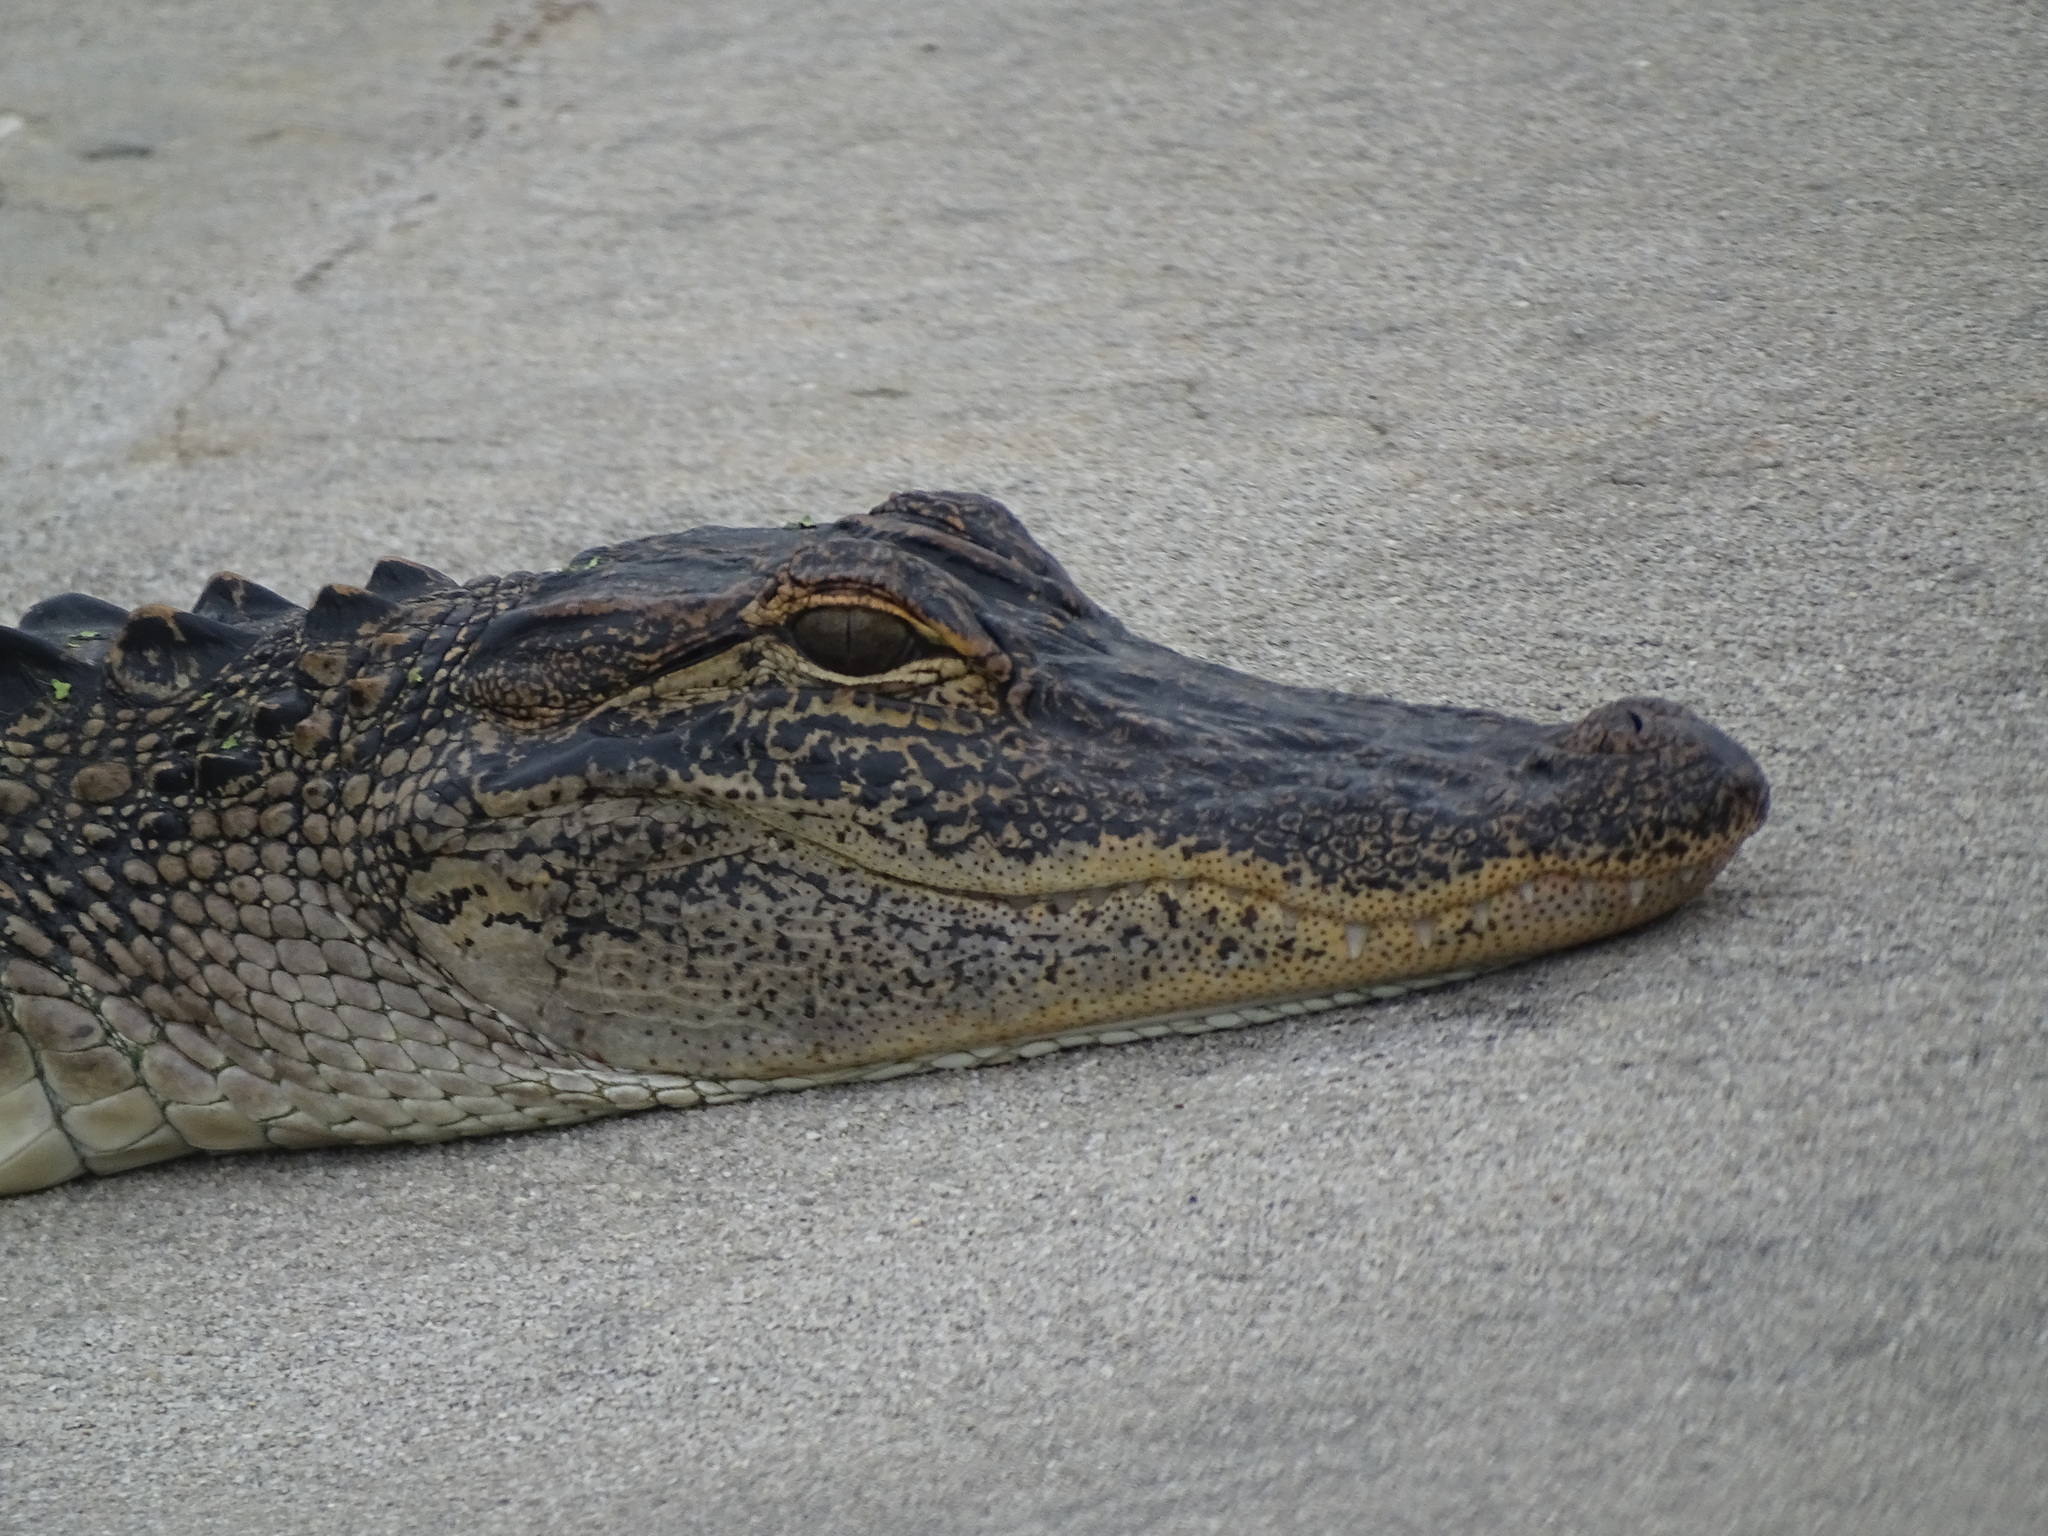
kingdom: Animalia
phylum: Chordata
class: Crocodylia
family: Alligatoridae
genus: Alligator
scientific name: Alligator mississippiensis
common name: American alligator
